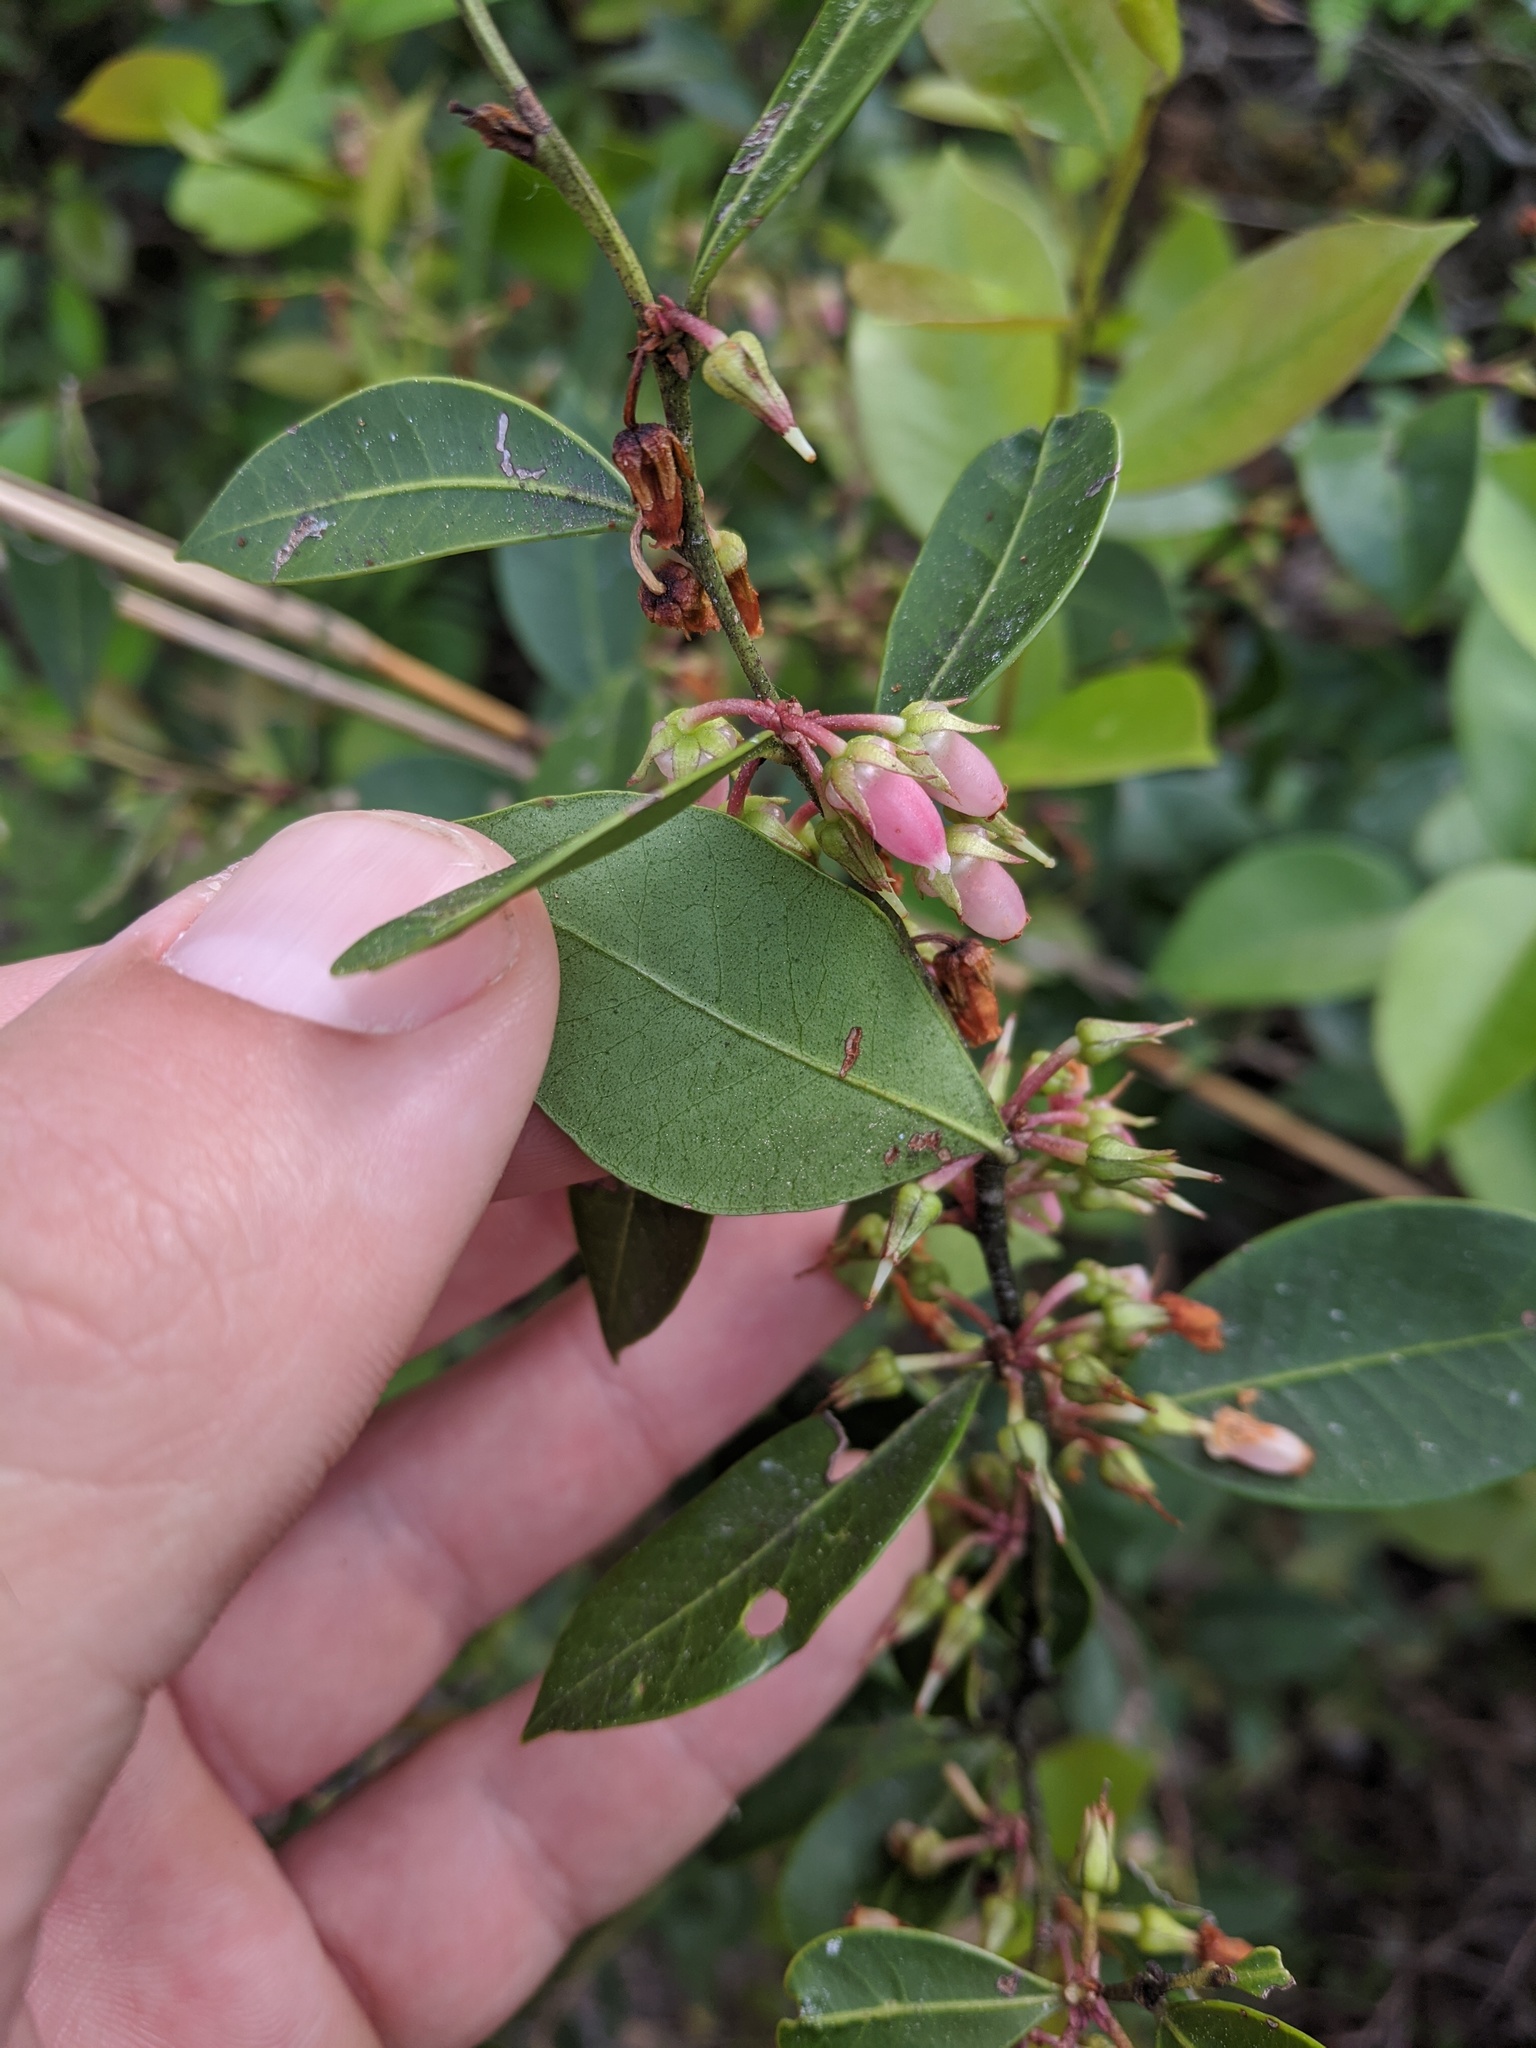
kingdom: Plantae
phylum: Tracheophyta
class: Magnoliopsida
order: Ericales
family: Ericaceae
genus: Lyonia
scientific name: Lyonia lucida
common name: Fetterbush
